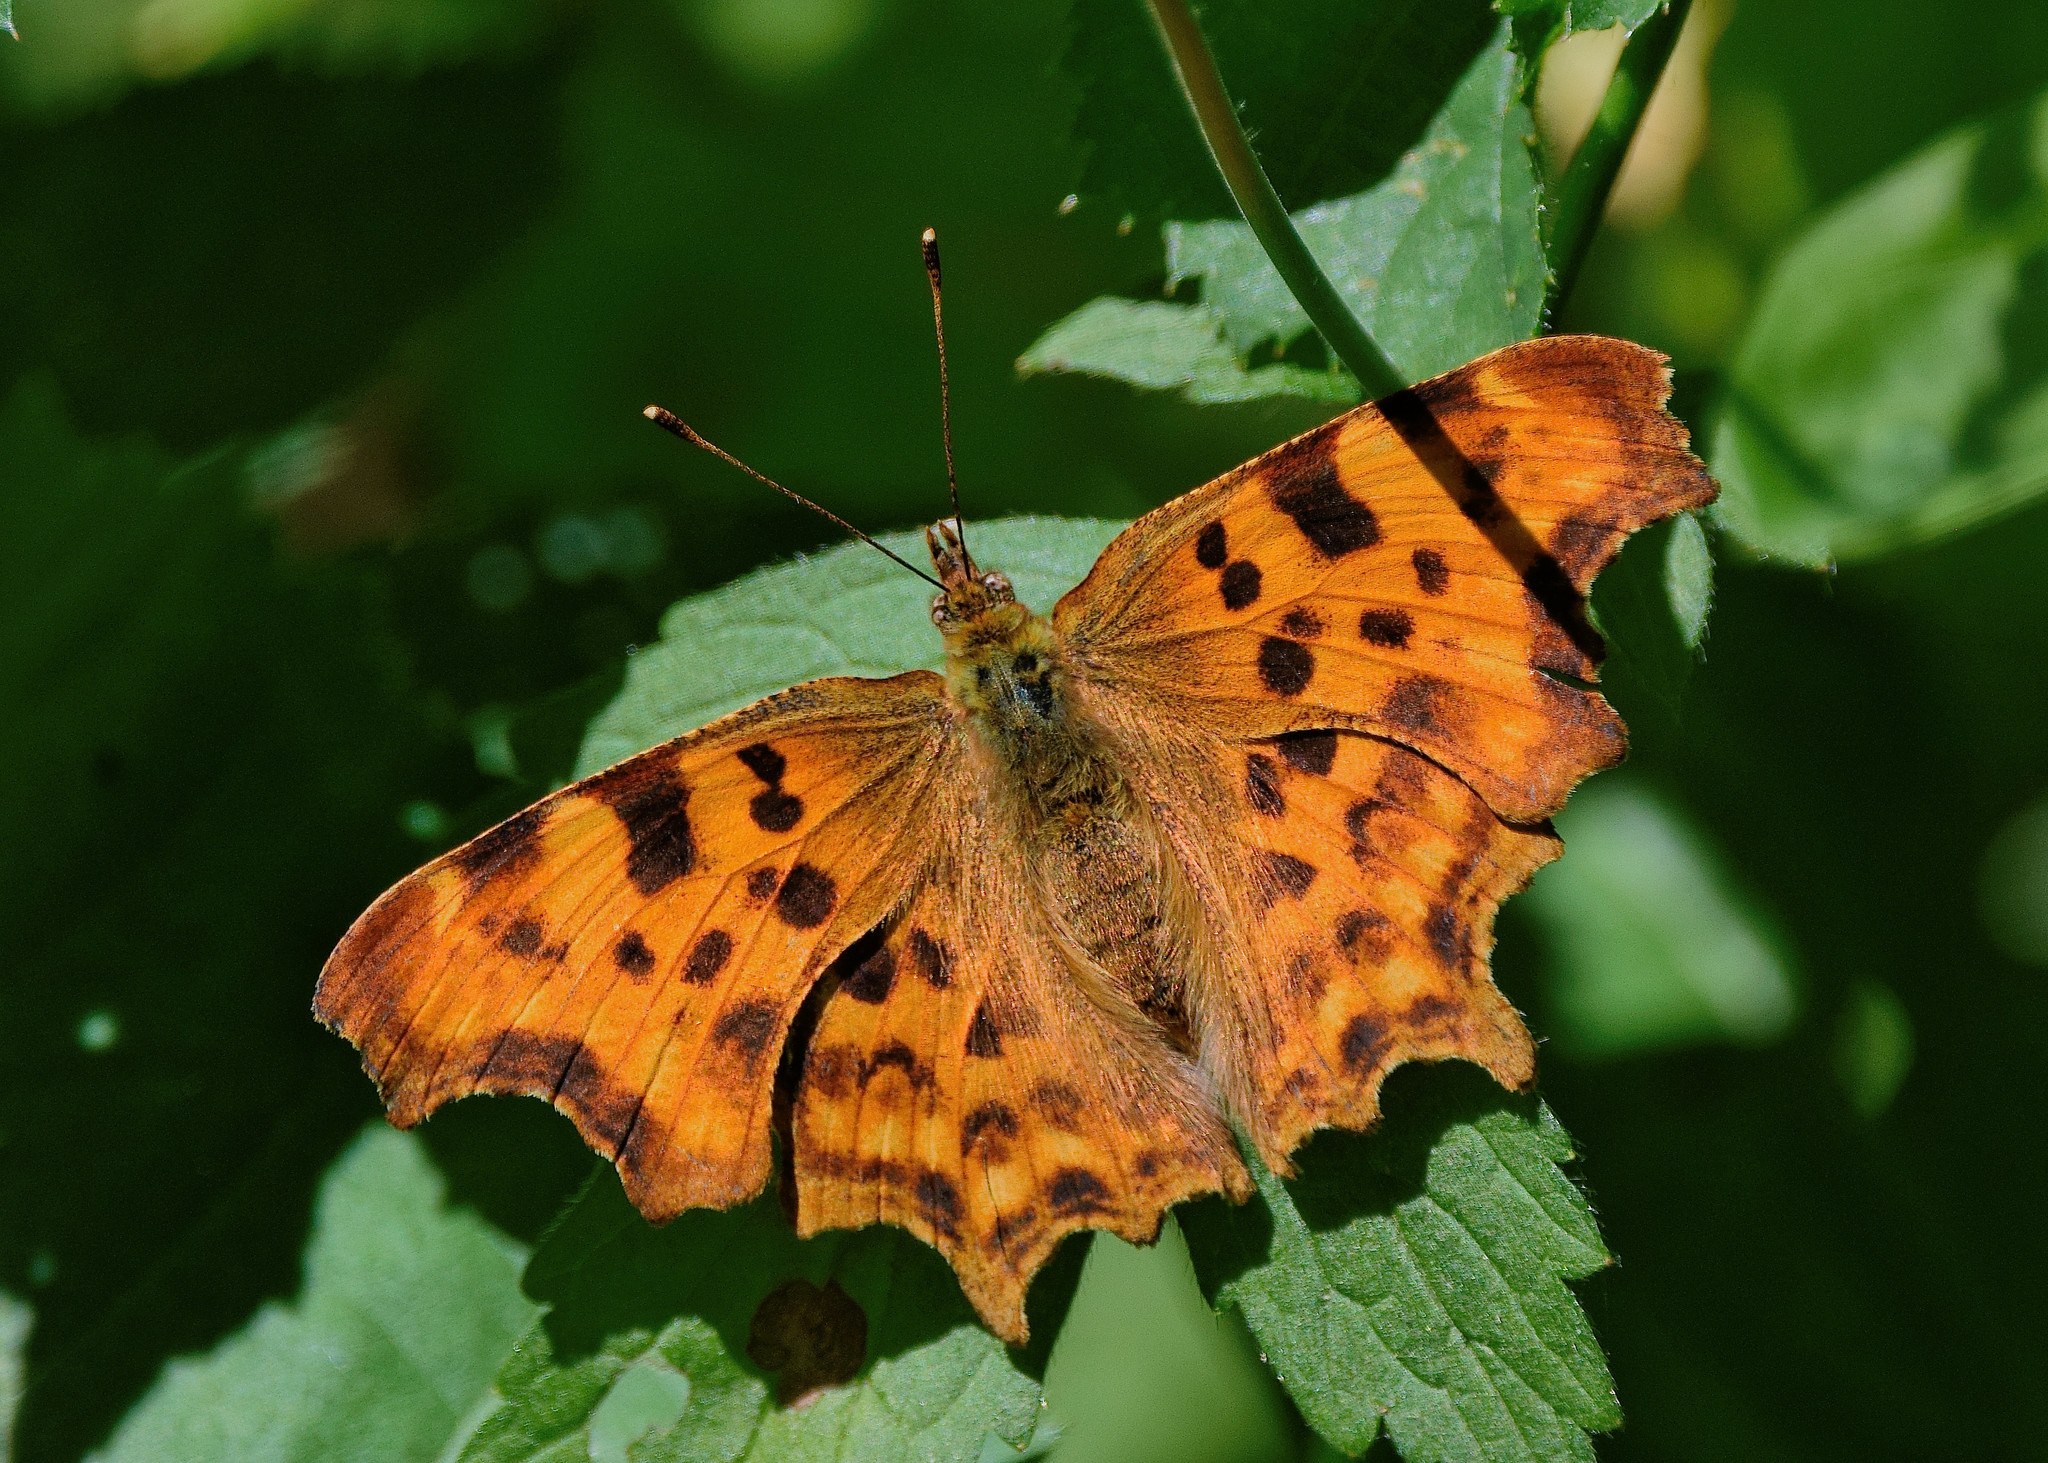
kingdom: Animalia
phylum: Arthropoda
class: Insecta
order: Lepidoptera
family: Nymphalidae
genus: Polygonia
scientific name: Polygonia c-album
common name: Comma
